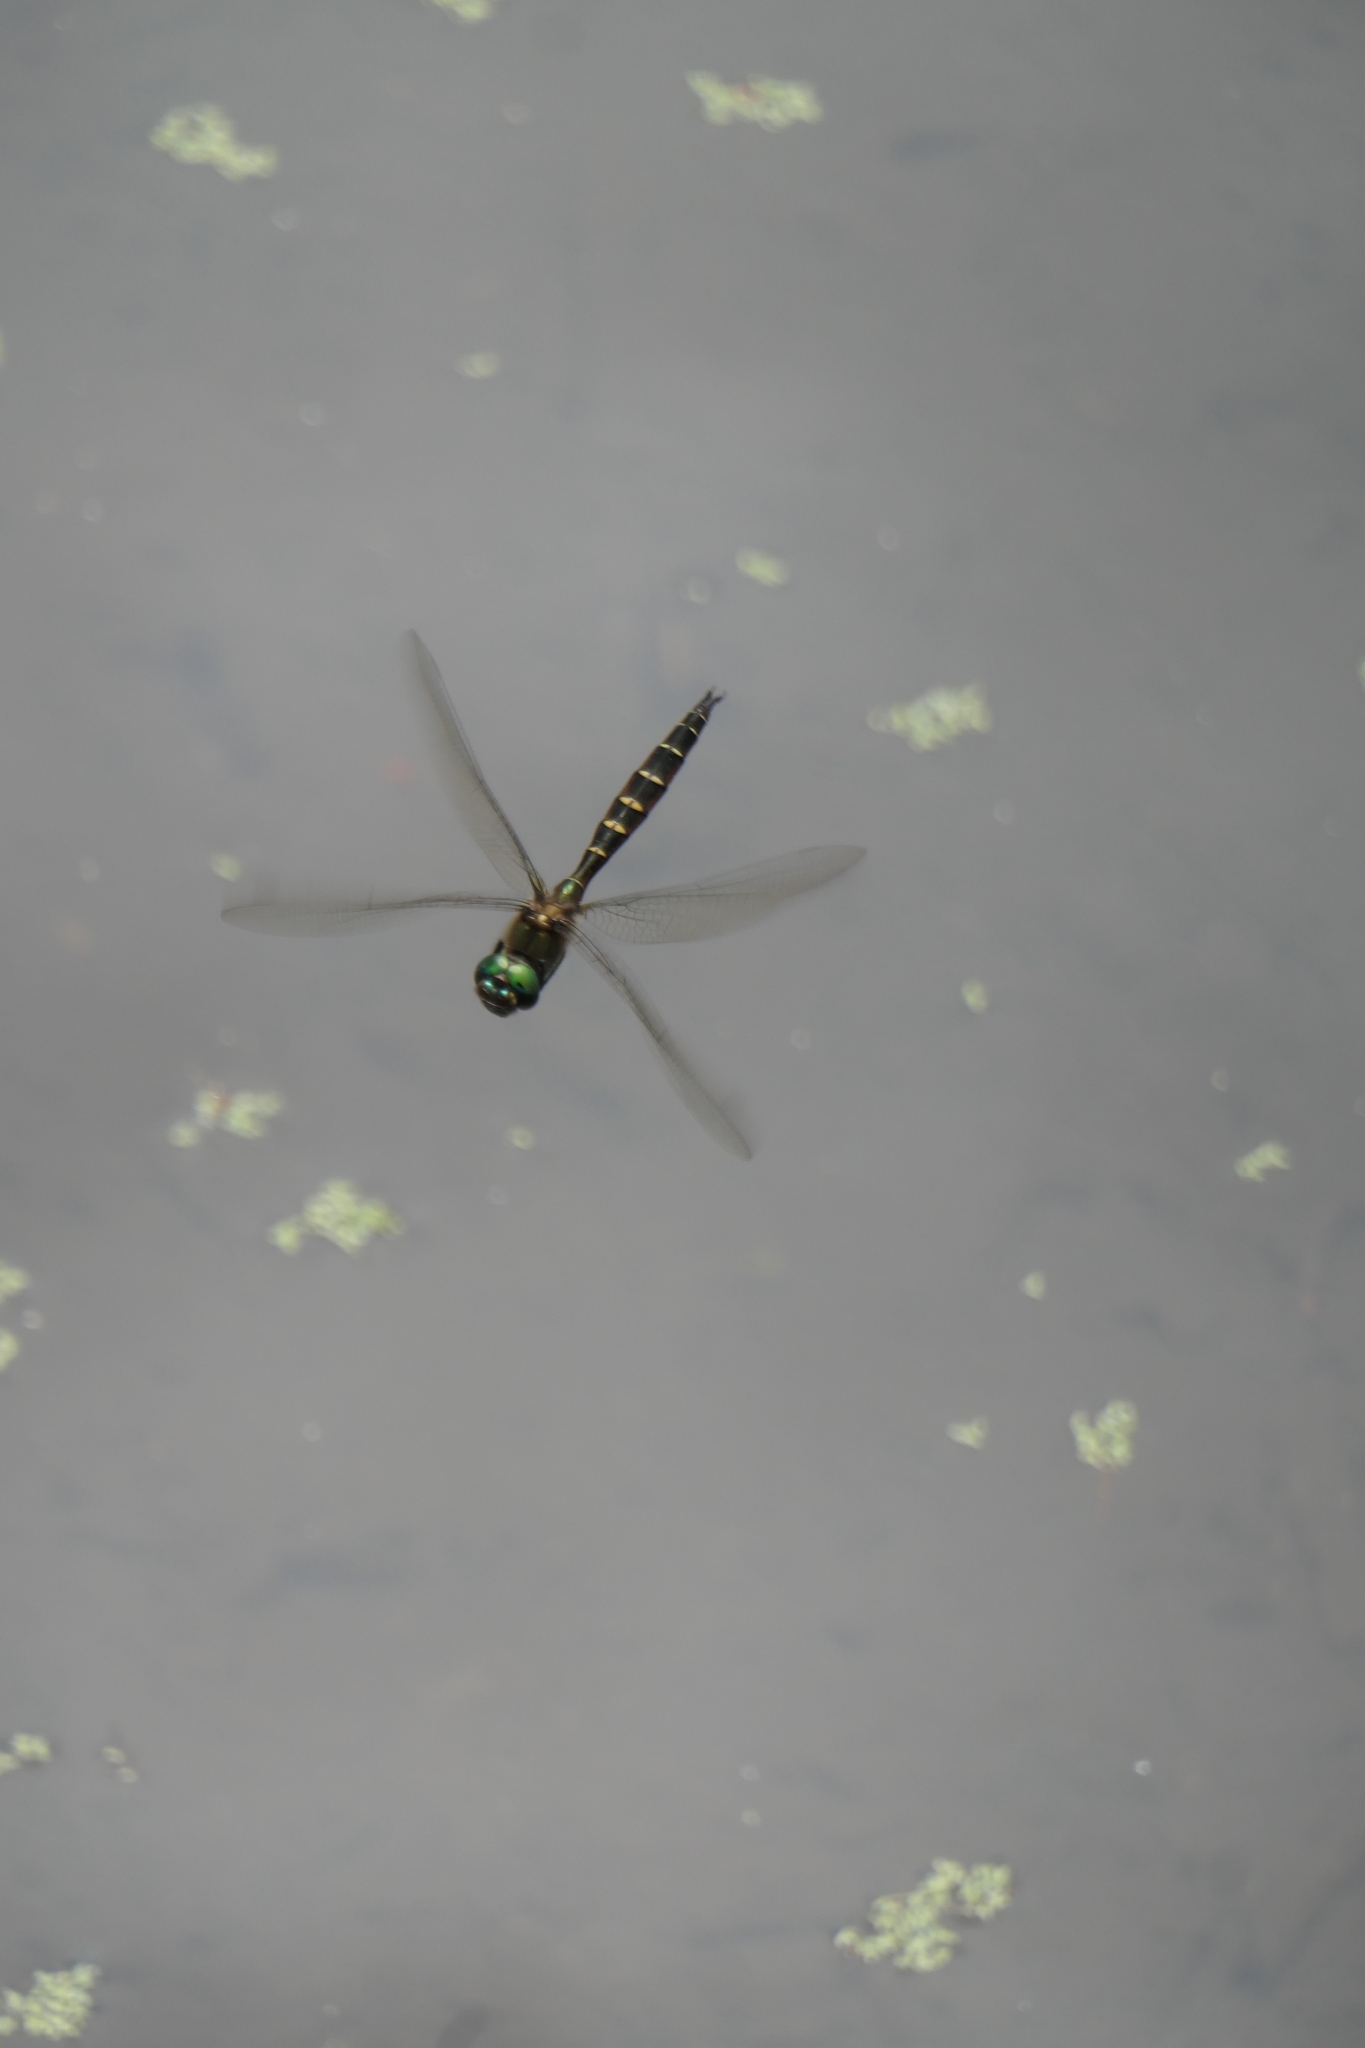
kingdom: Animalia
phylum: Arthropoda
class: Insecta
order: Odonata
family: Corduliidae
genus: Procordulia
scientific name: Procordulia smithii
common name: Ranger dragonfly
